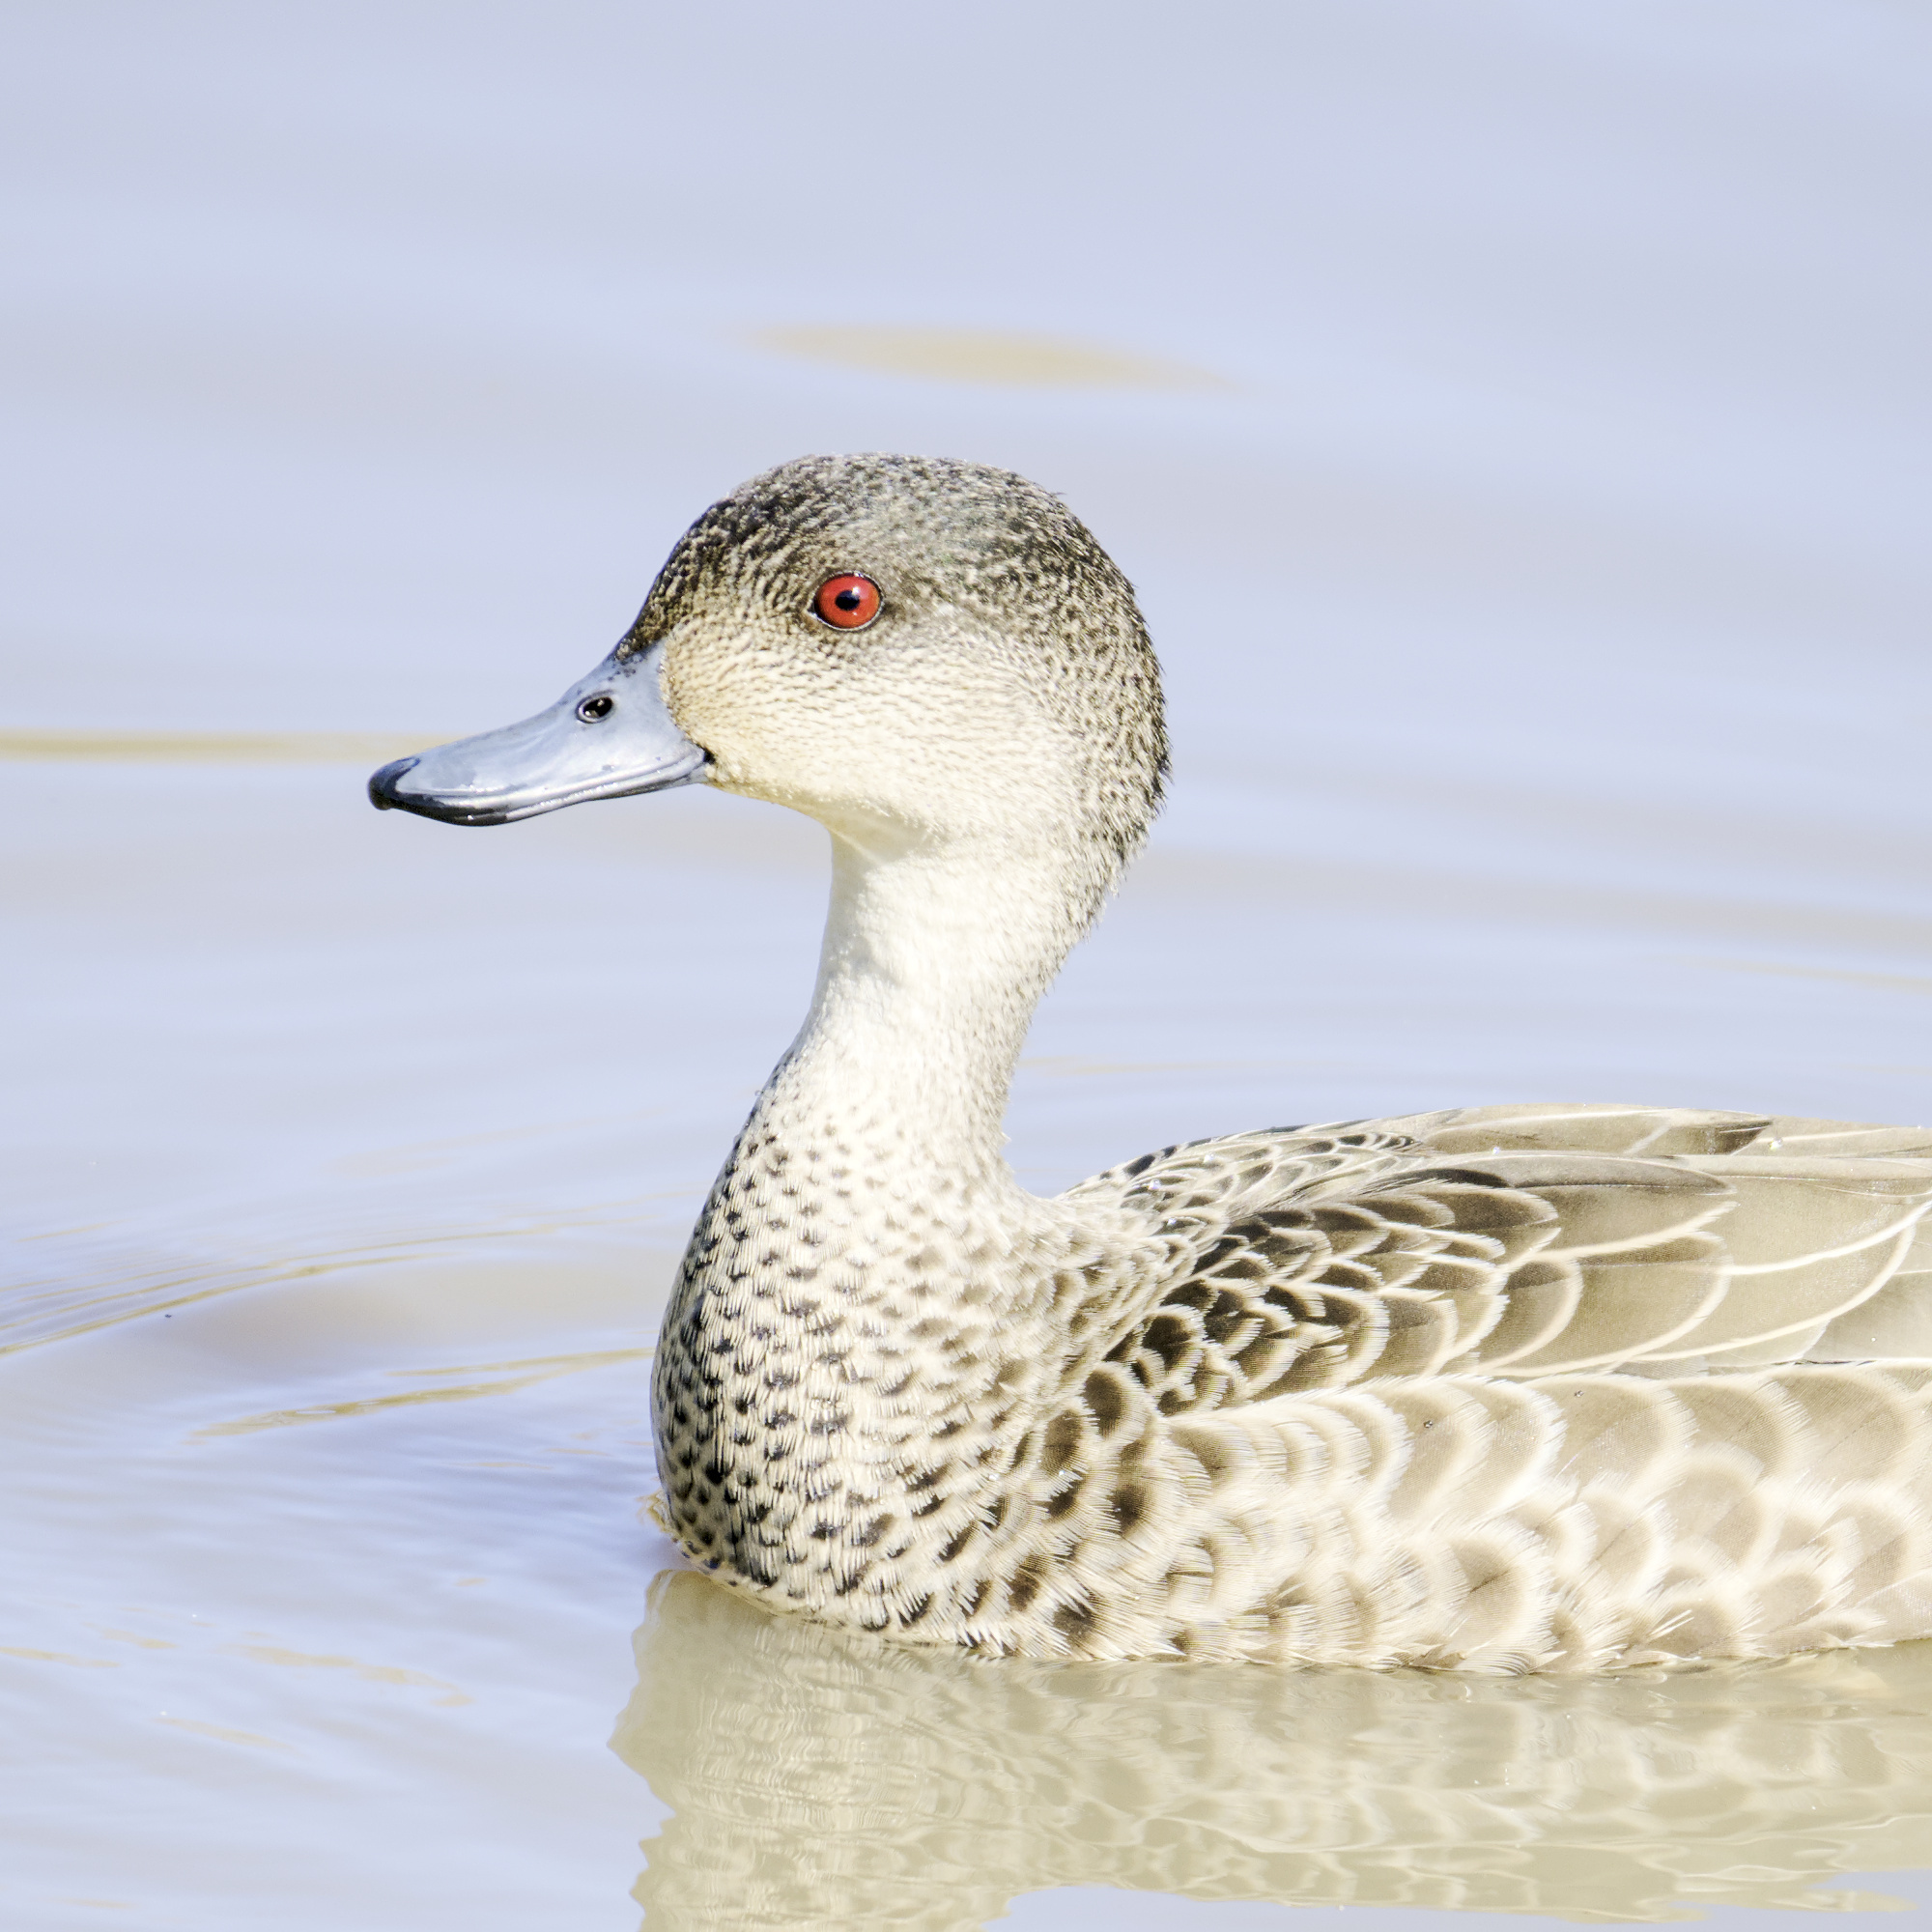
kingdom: Animalia
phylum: Chordata
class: Aves
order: Anseriformes
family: Anatidae
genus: Anas
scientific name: Anas gracilis
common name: Grey teal
